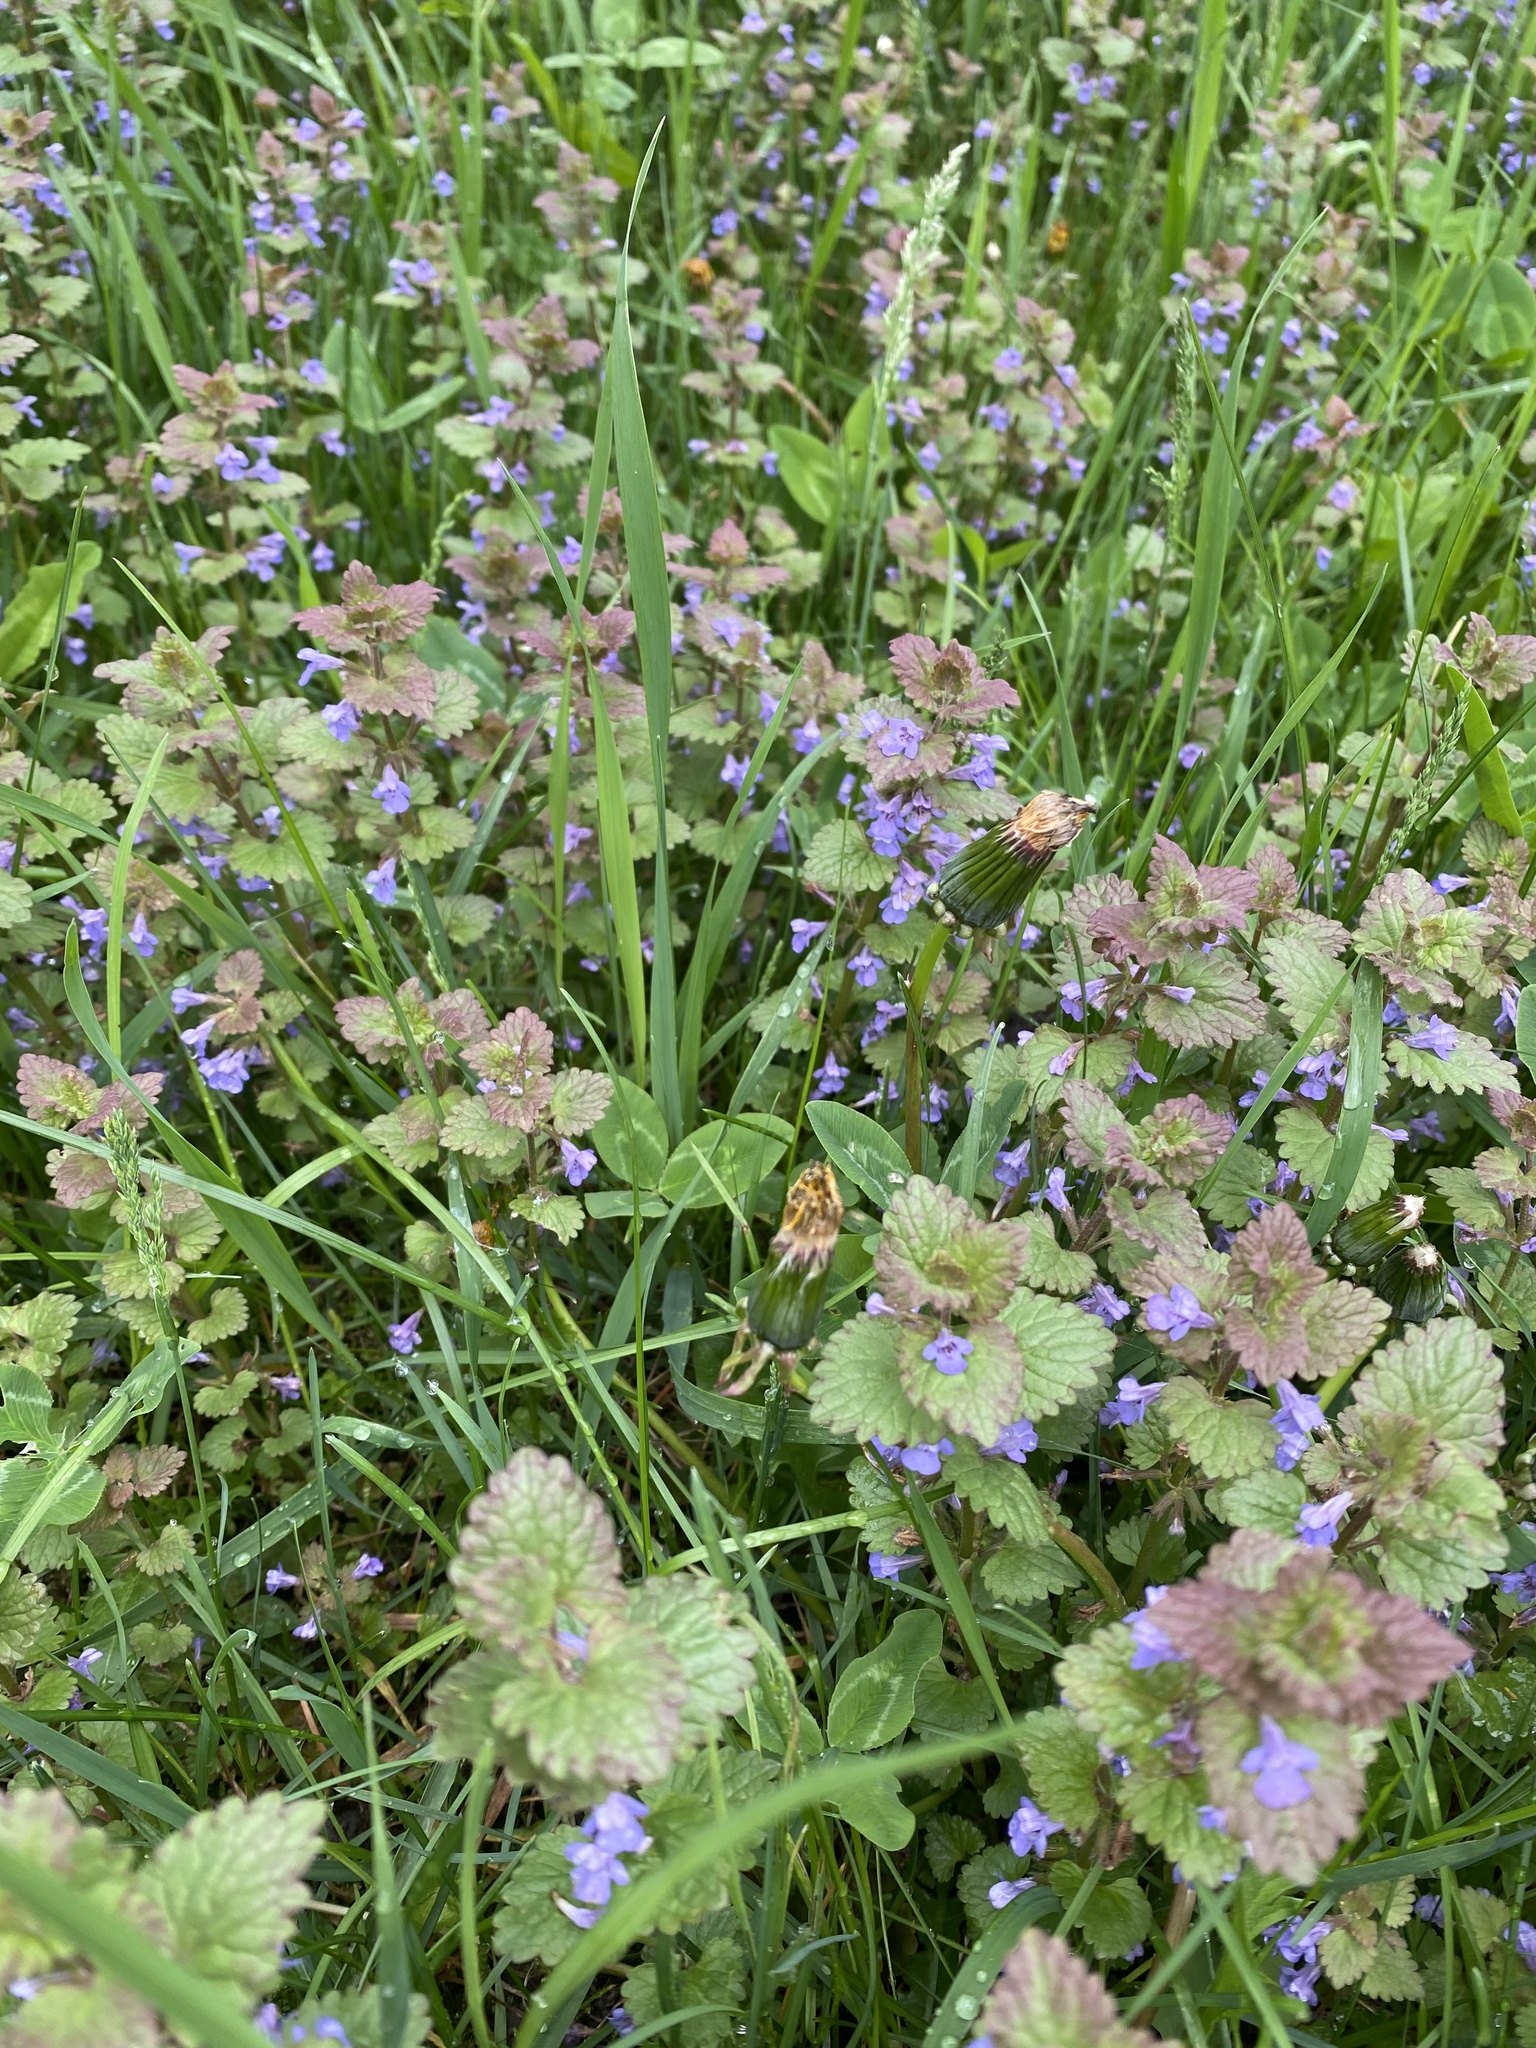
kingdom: Plantae
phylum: Tracheophyta
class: Magnoliopsida
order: Lamiales
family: Lamiaceae
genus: Glechoma
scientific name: Glechoma hederacea
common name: Ground ivy
